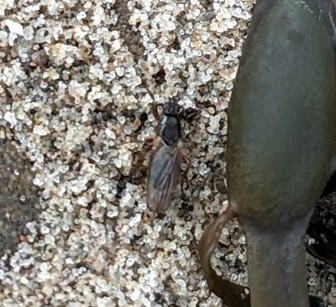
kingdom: Animalia
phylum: Arthropoda
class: Insecta
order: Diptera
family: Coelopidae
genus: Coelopa
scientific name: Coelopa frigida
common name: Kelp fly
